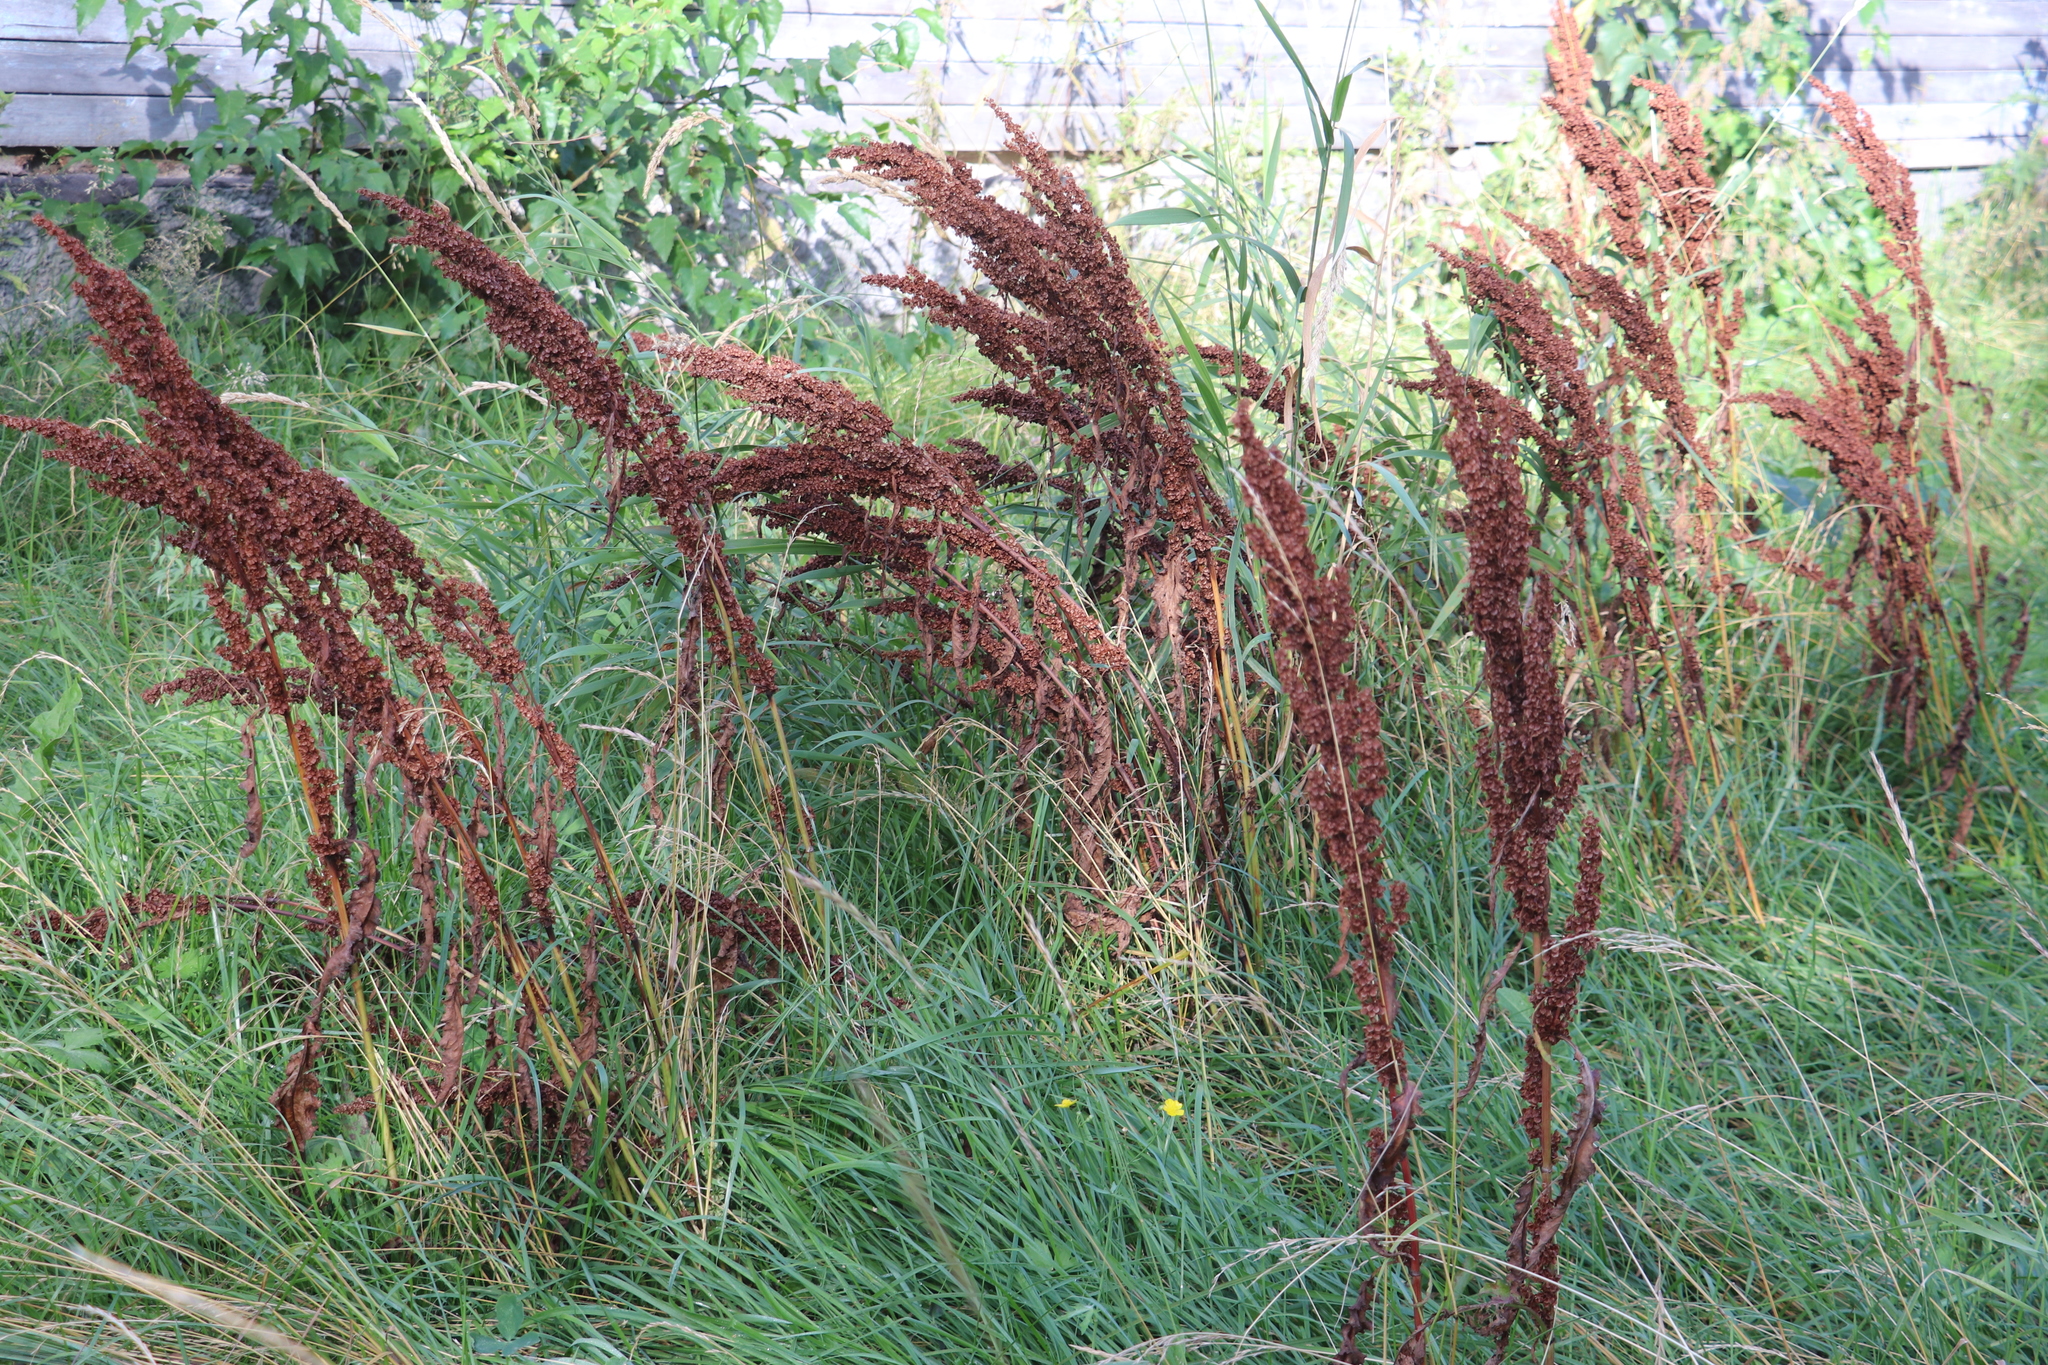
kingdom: Plantae
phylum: Tracheophyta
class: Magnoliopsida
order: Caryophyllales
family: Polygonaceae
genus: Rumex
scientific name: Rumex pseudonatronatus
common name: Field dock
